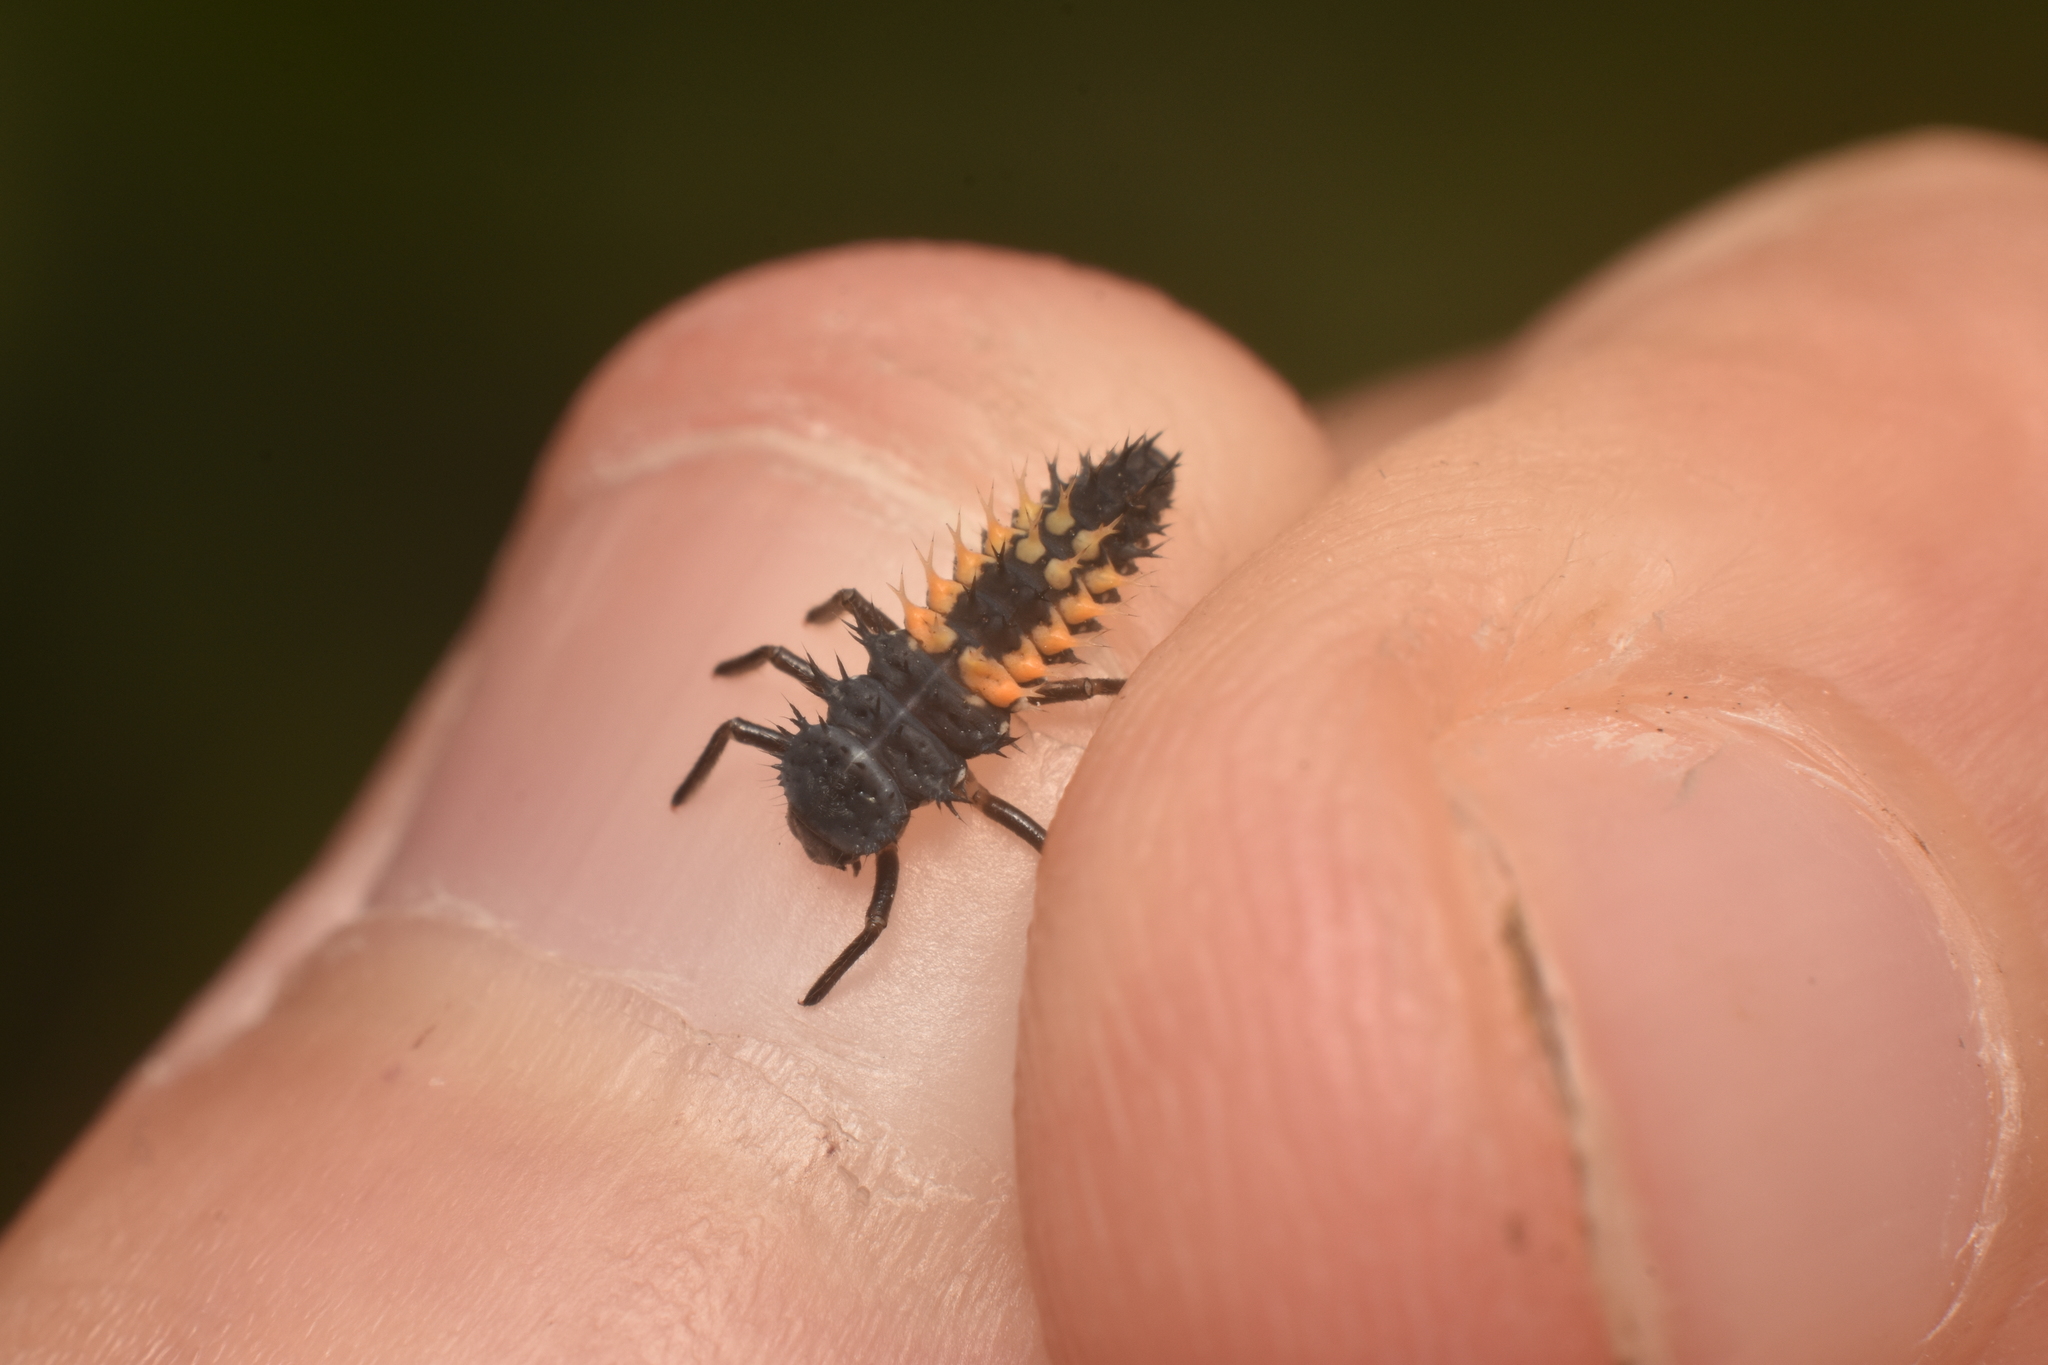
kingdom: Animalia
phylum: Arthropoda
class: Insecta
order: Coleoptera
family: Coccinellidae
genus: Harmonia
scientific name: Harmonia axyridis
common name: Harlequin ladybird
